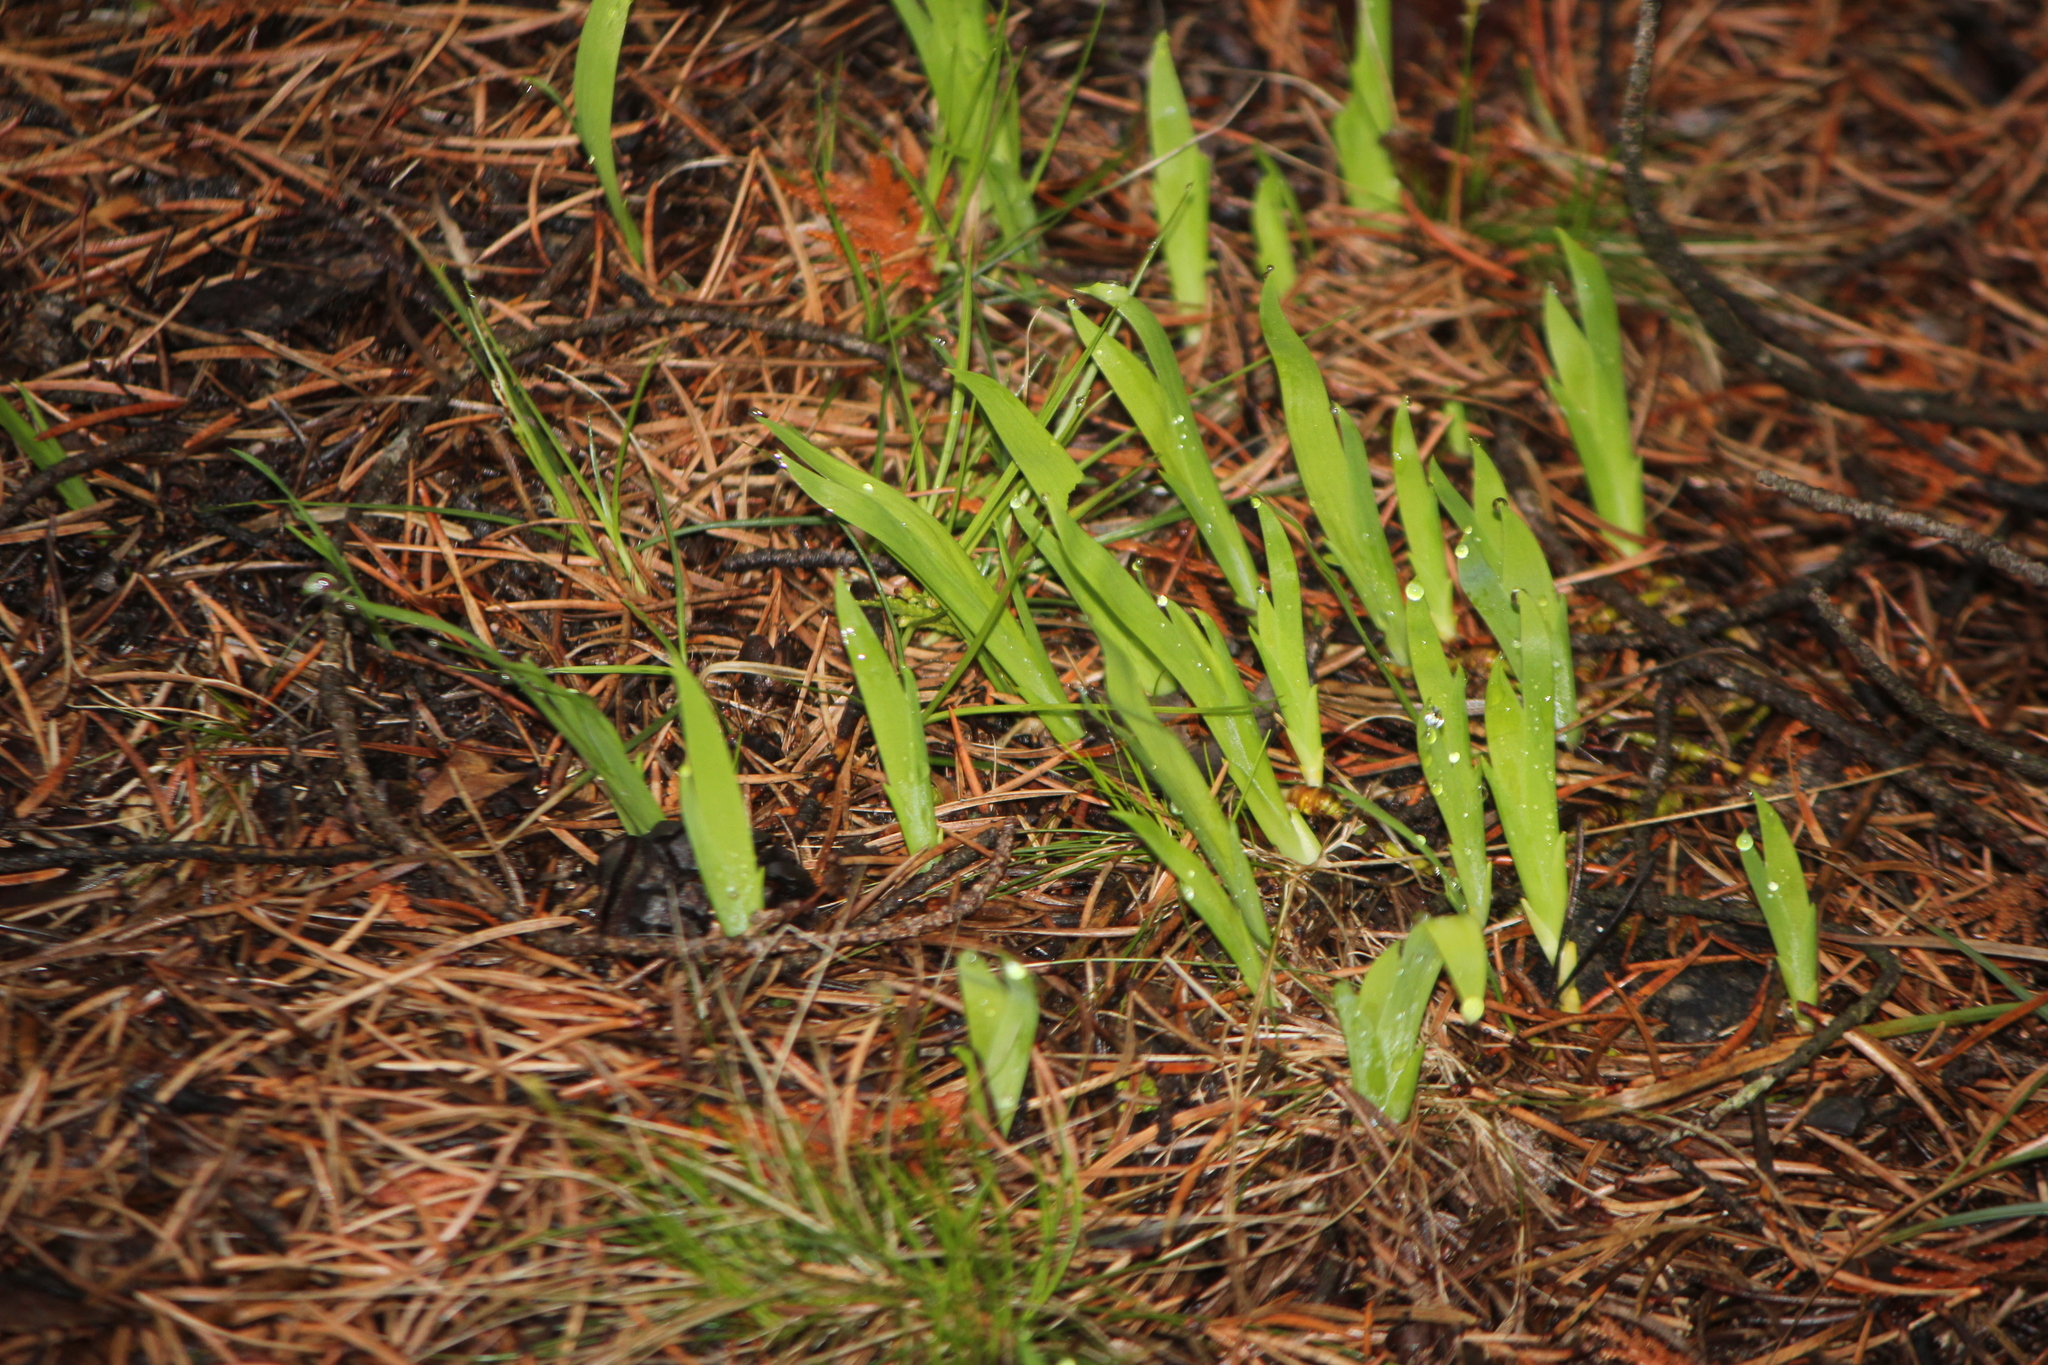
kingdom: Plantae
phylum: Tracheophyta
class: Liliopsida
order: Asparagales
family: Iridaceae
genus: Iris
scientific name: Iris lacustris
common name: Dwarf lake iris
